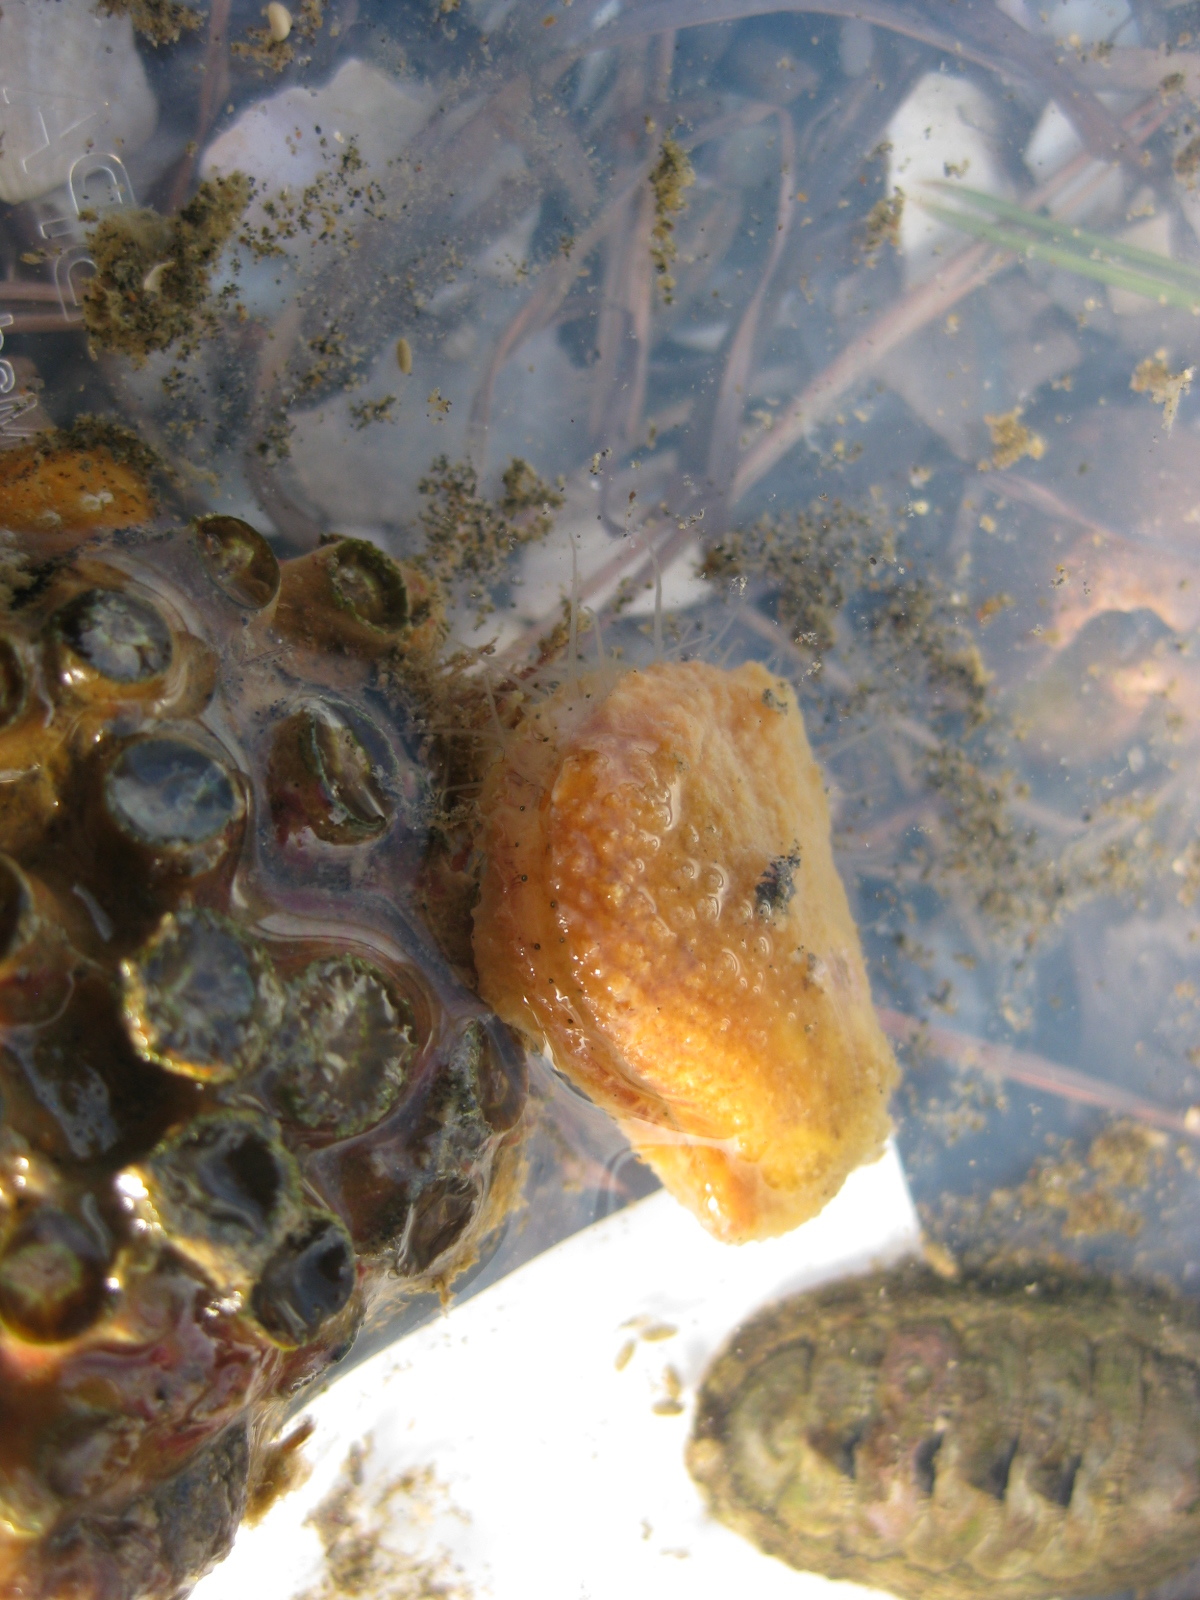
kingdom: Animalia
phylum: Mollusca
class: Bivalvia
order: Pectinida
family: Pectinidae
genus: Talochlamys
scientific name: Talochlamys zelandiae
